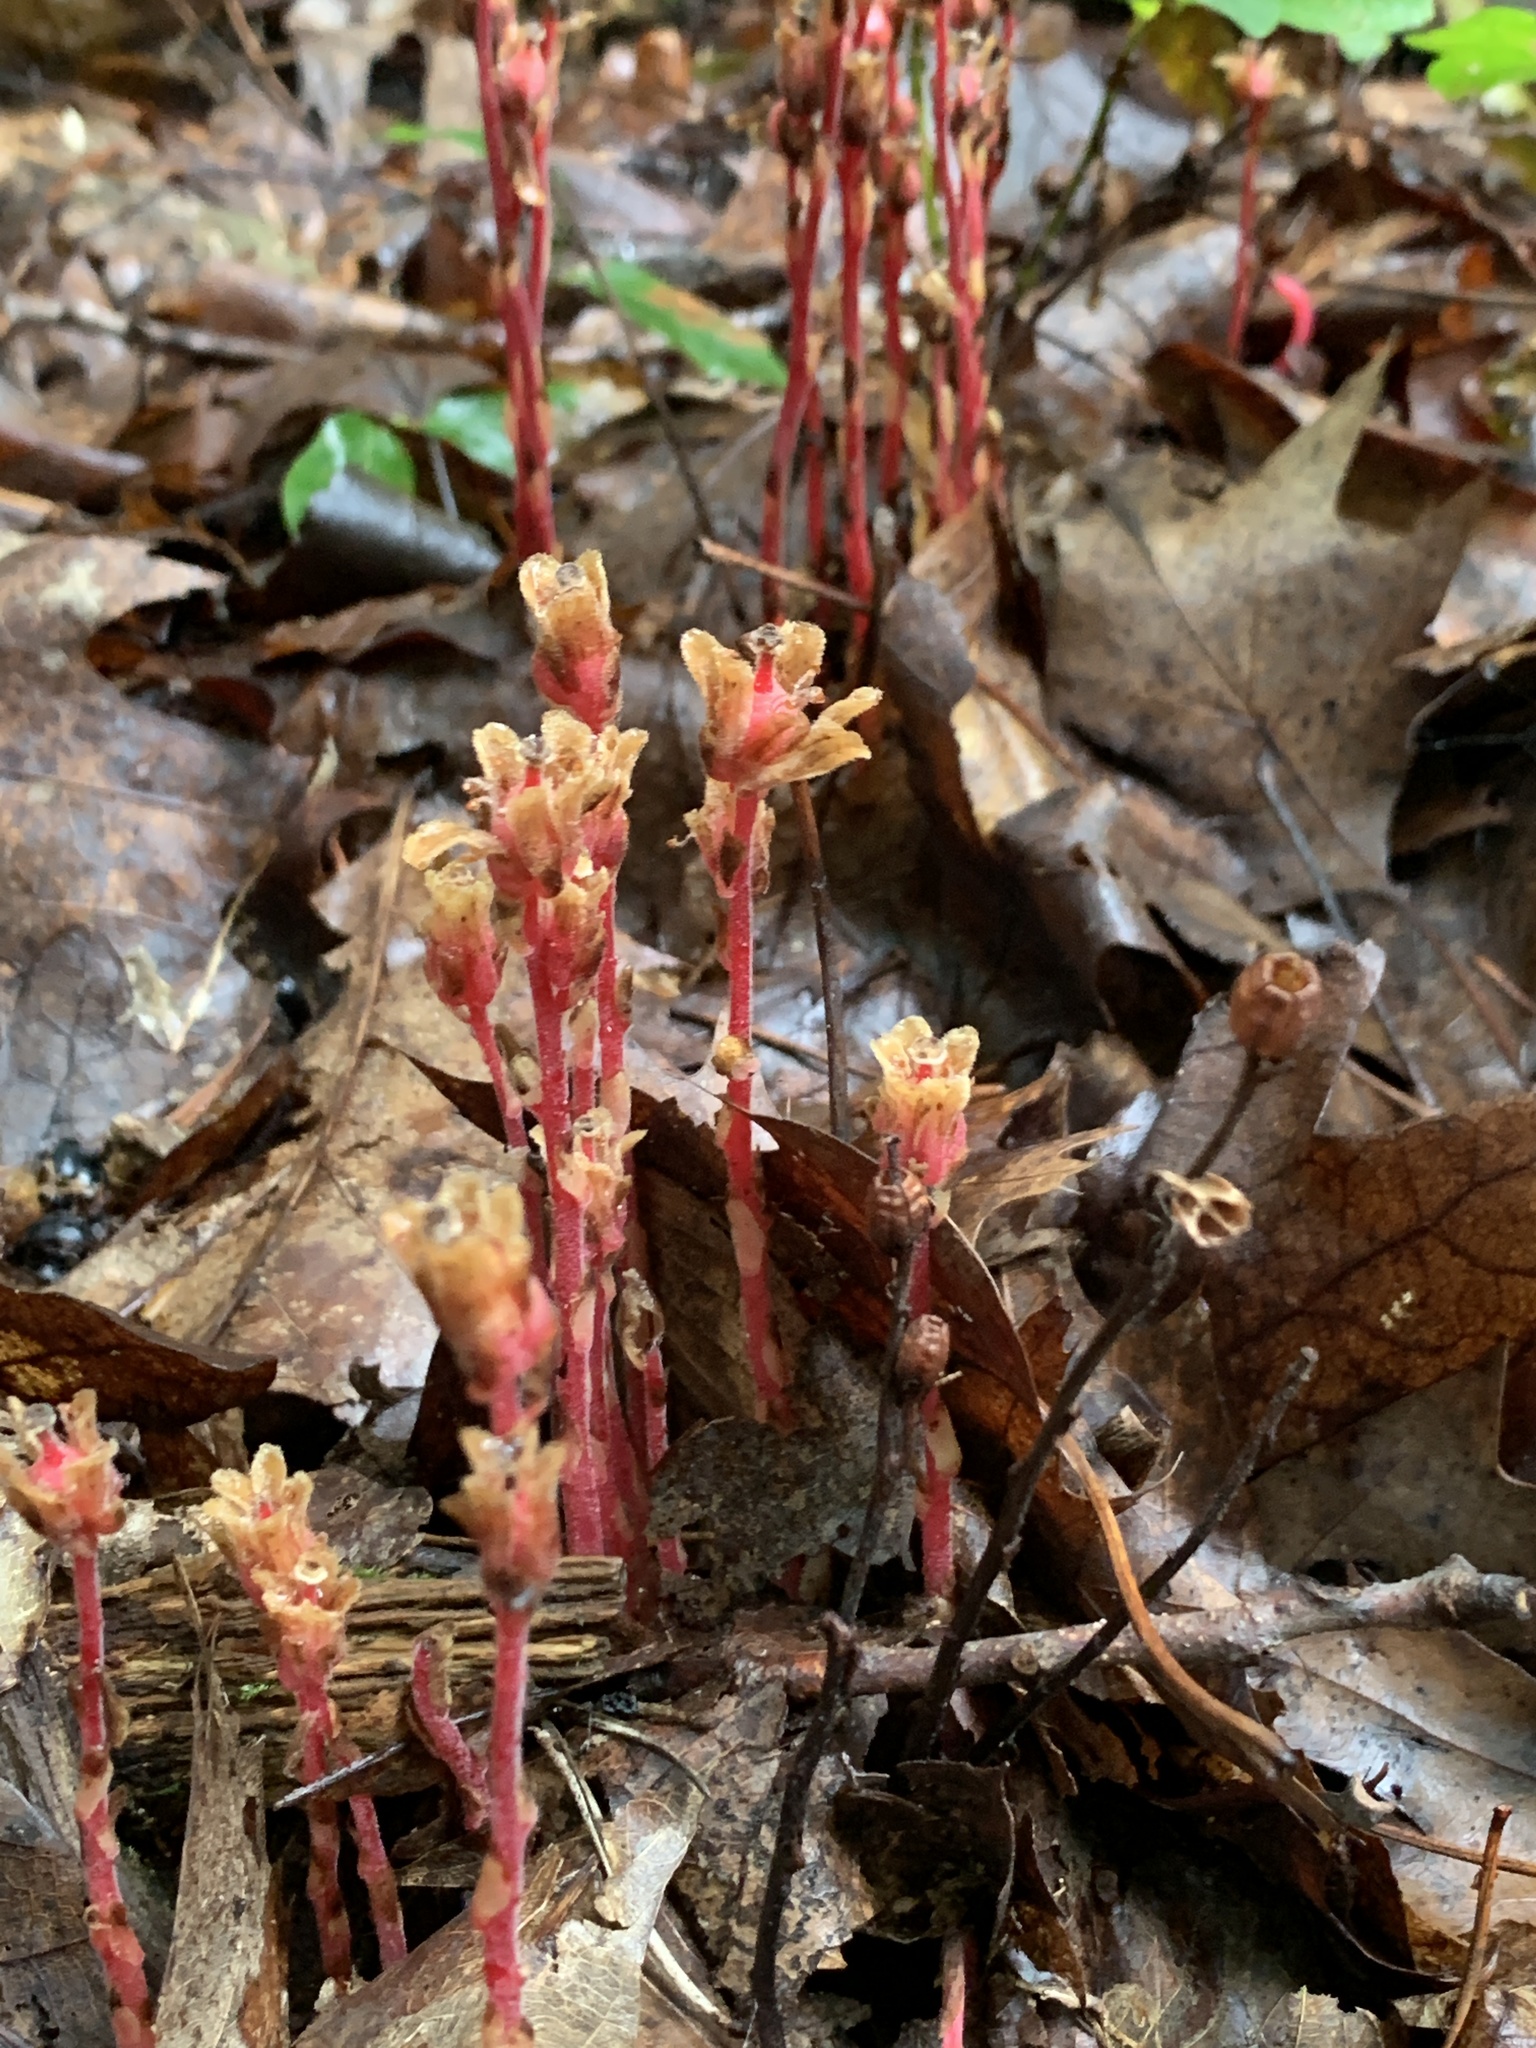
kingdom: Plantae
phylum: Tracheophyta
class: Magnoliopsida
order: Ericales
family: Ericaceae
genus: Hypopitys
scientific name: Hypopitys monotropa
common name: Yellow bird's-nest
